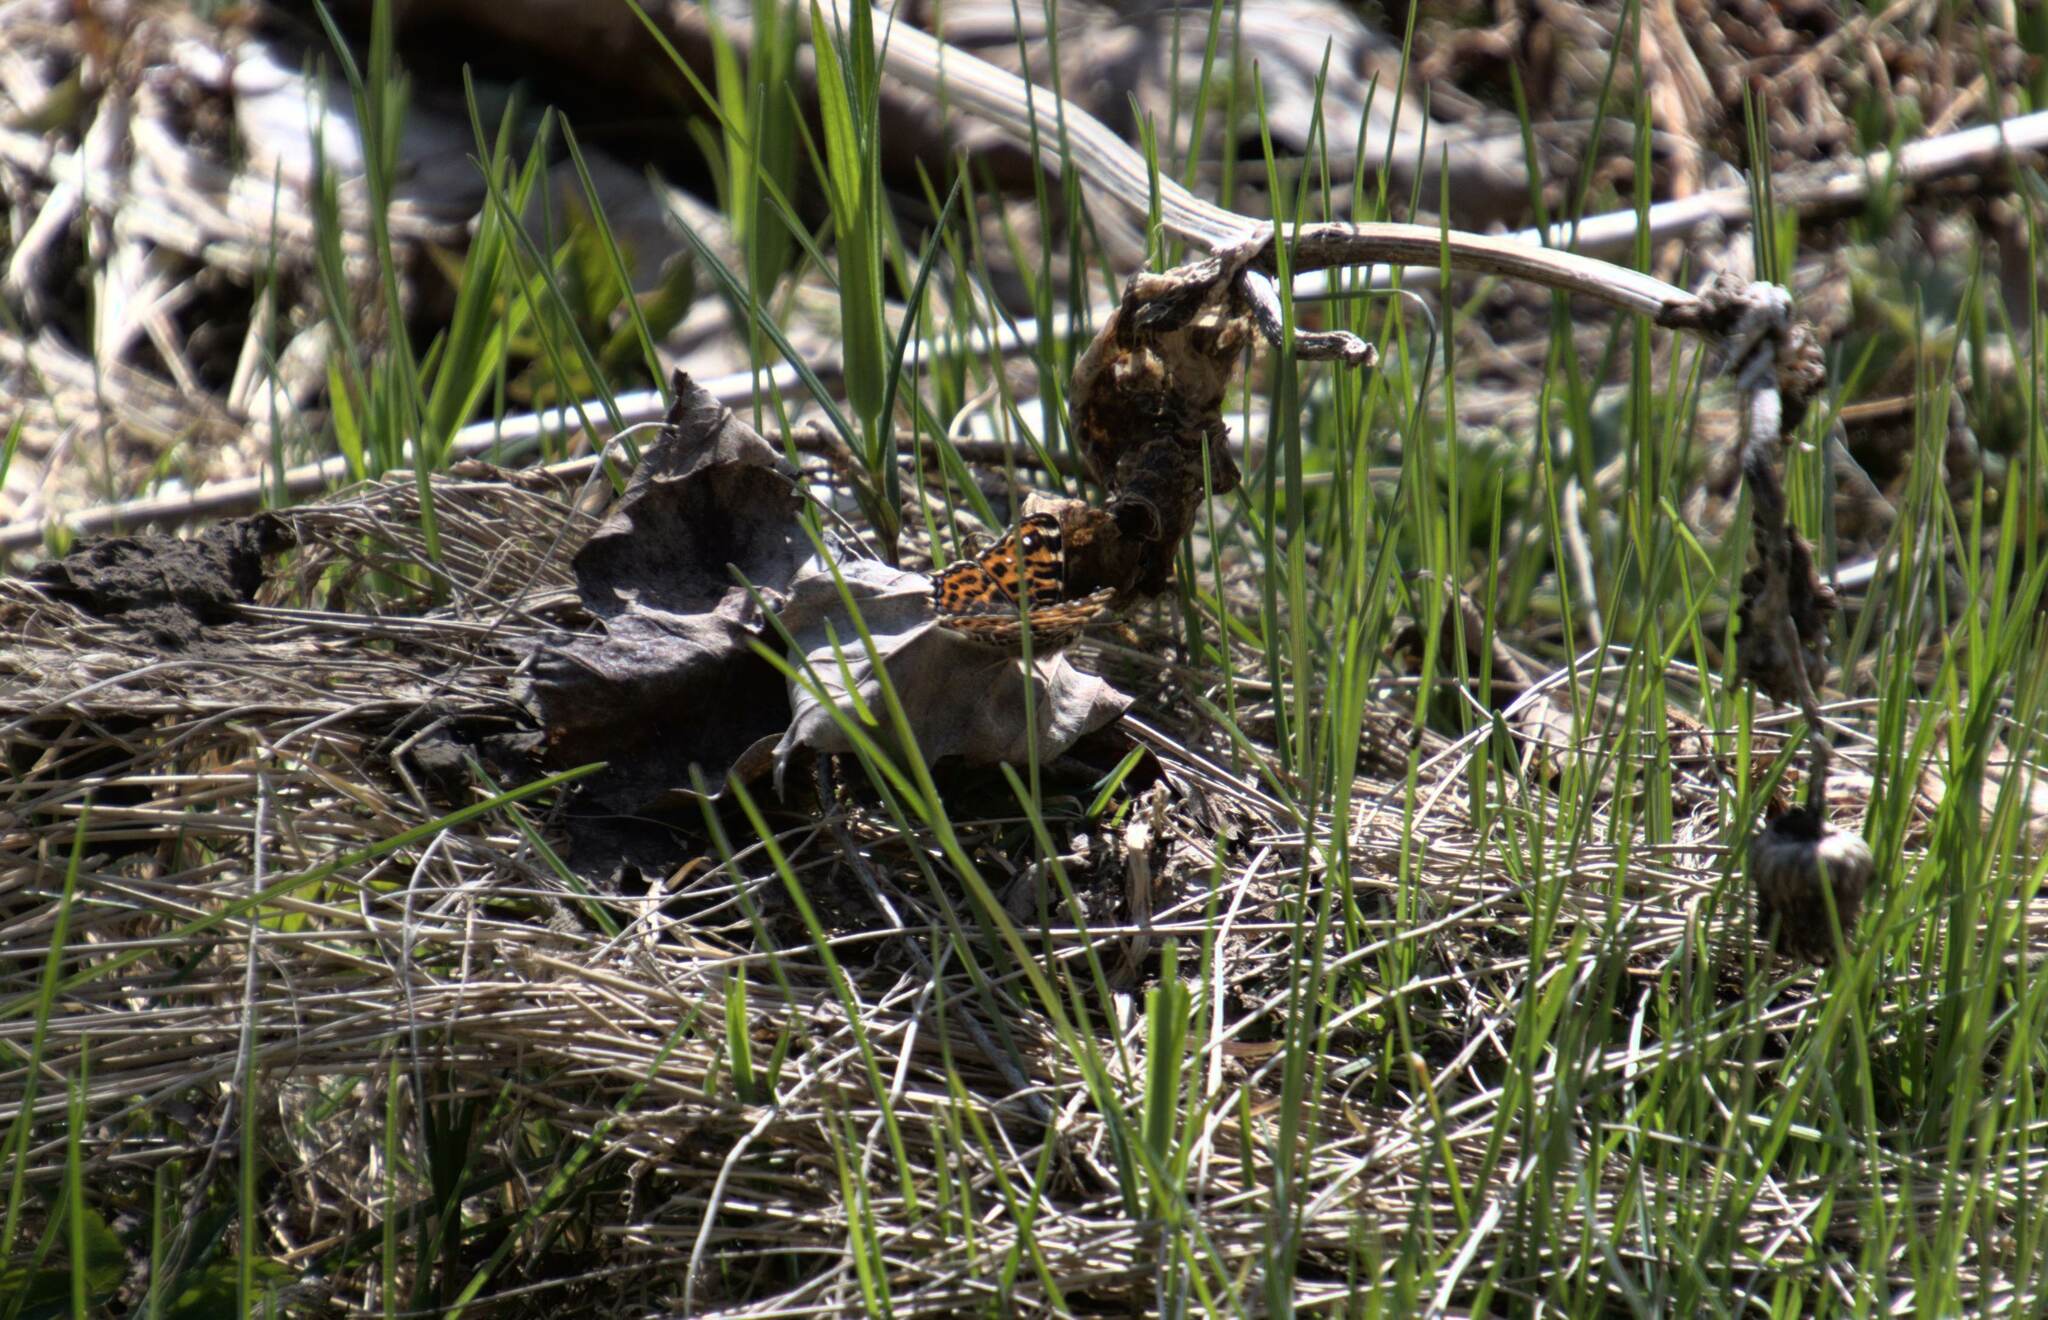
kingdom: Animalia
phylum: Arthropoda
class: Insecta
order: Lepidoptera
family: Nymphalidae
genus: Araschnia
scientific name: Araschnia levana
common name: Map butterfly
